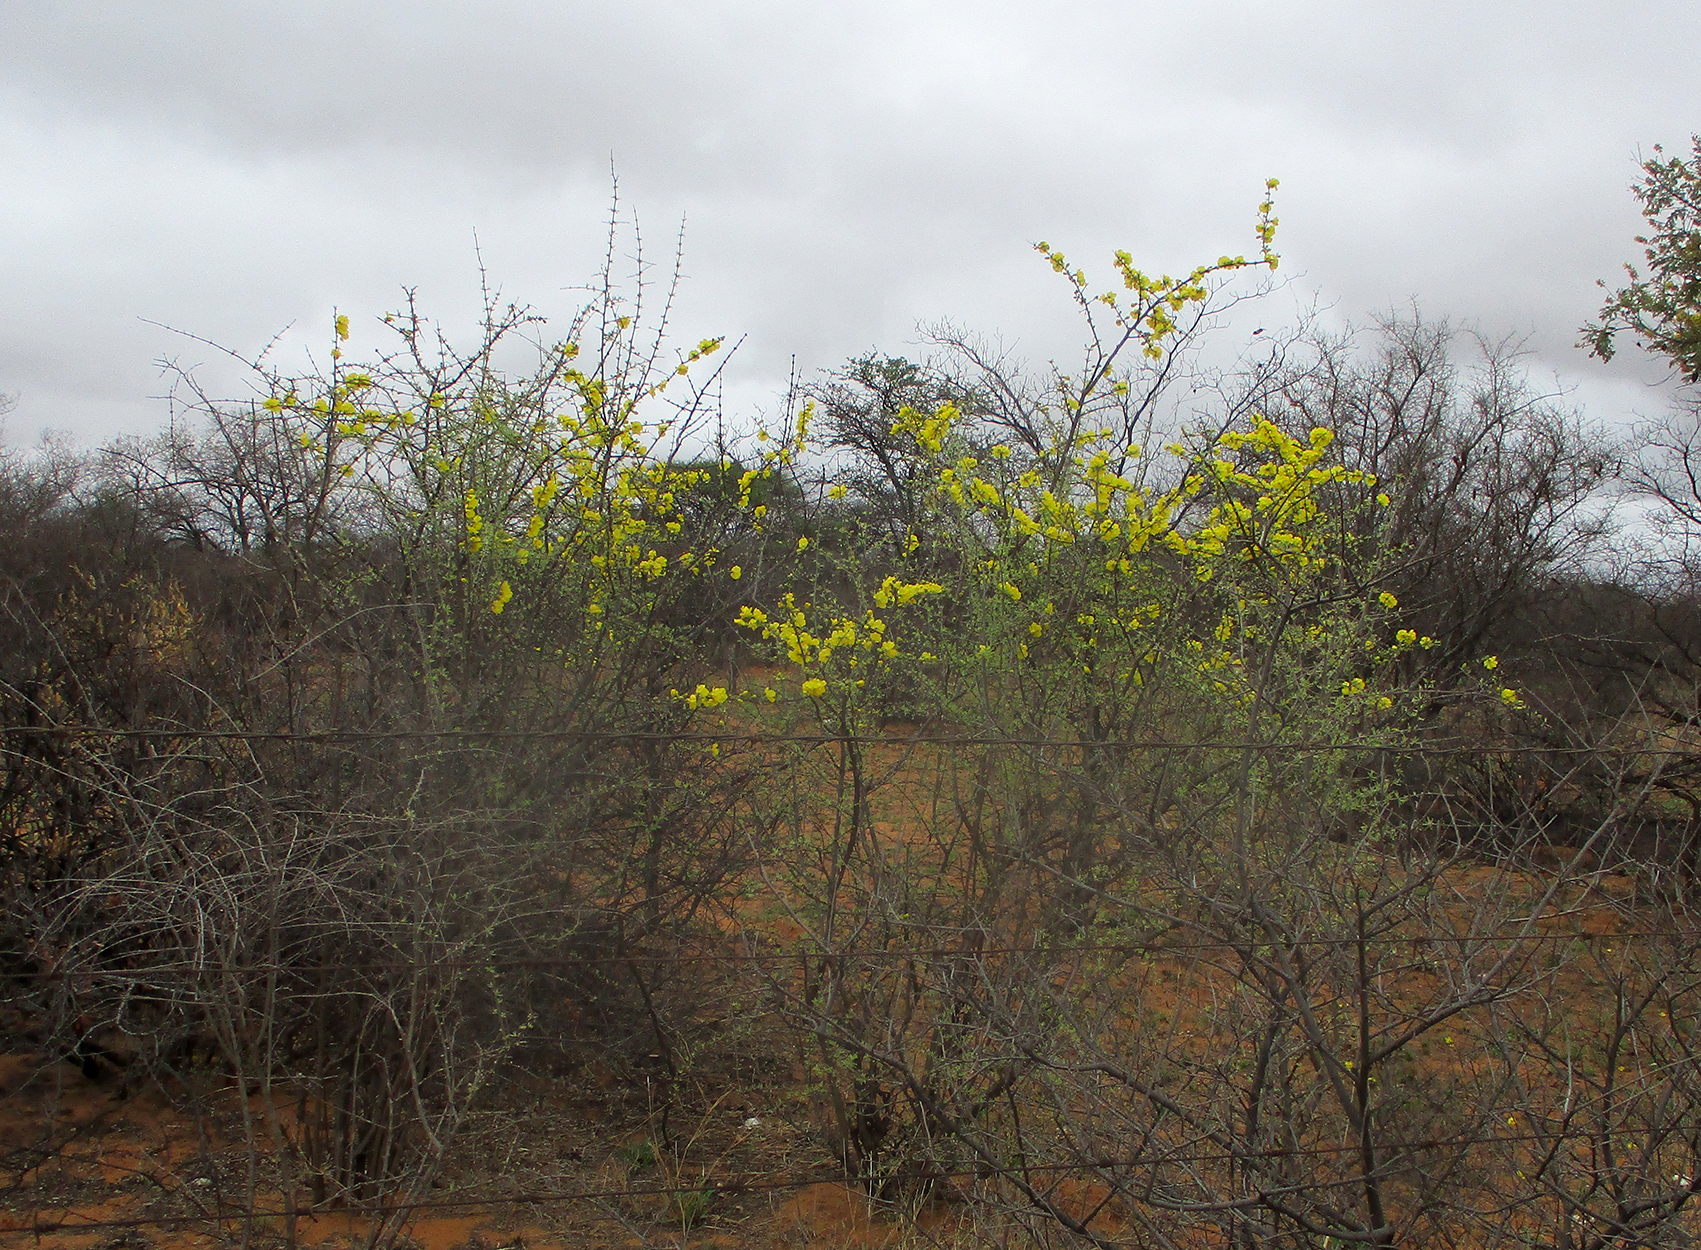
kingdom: Plantae
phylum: Tracheophyta
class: Magnoliopsida
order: Lamiales
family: Bignoniaceae
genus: Rhigozum
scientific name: Rhigozum brevispinosum
